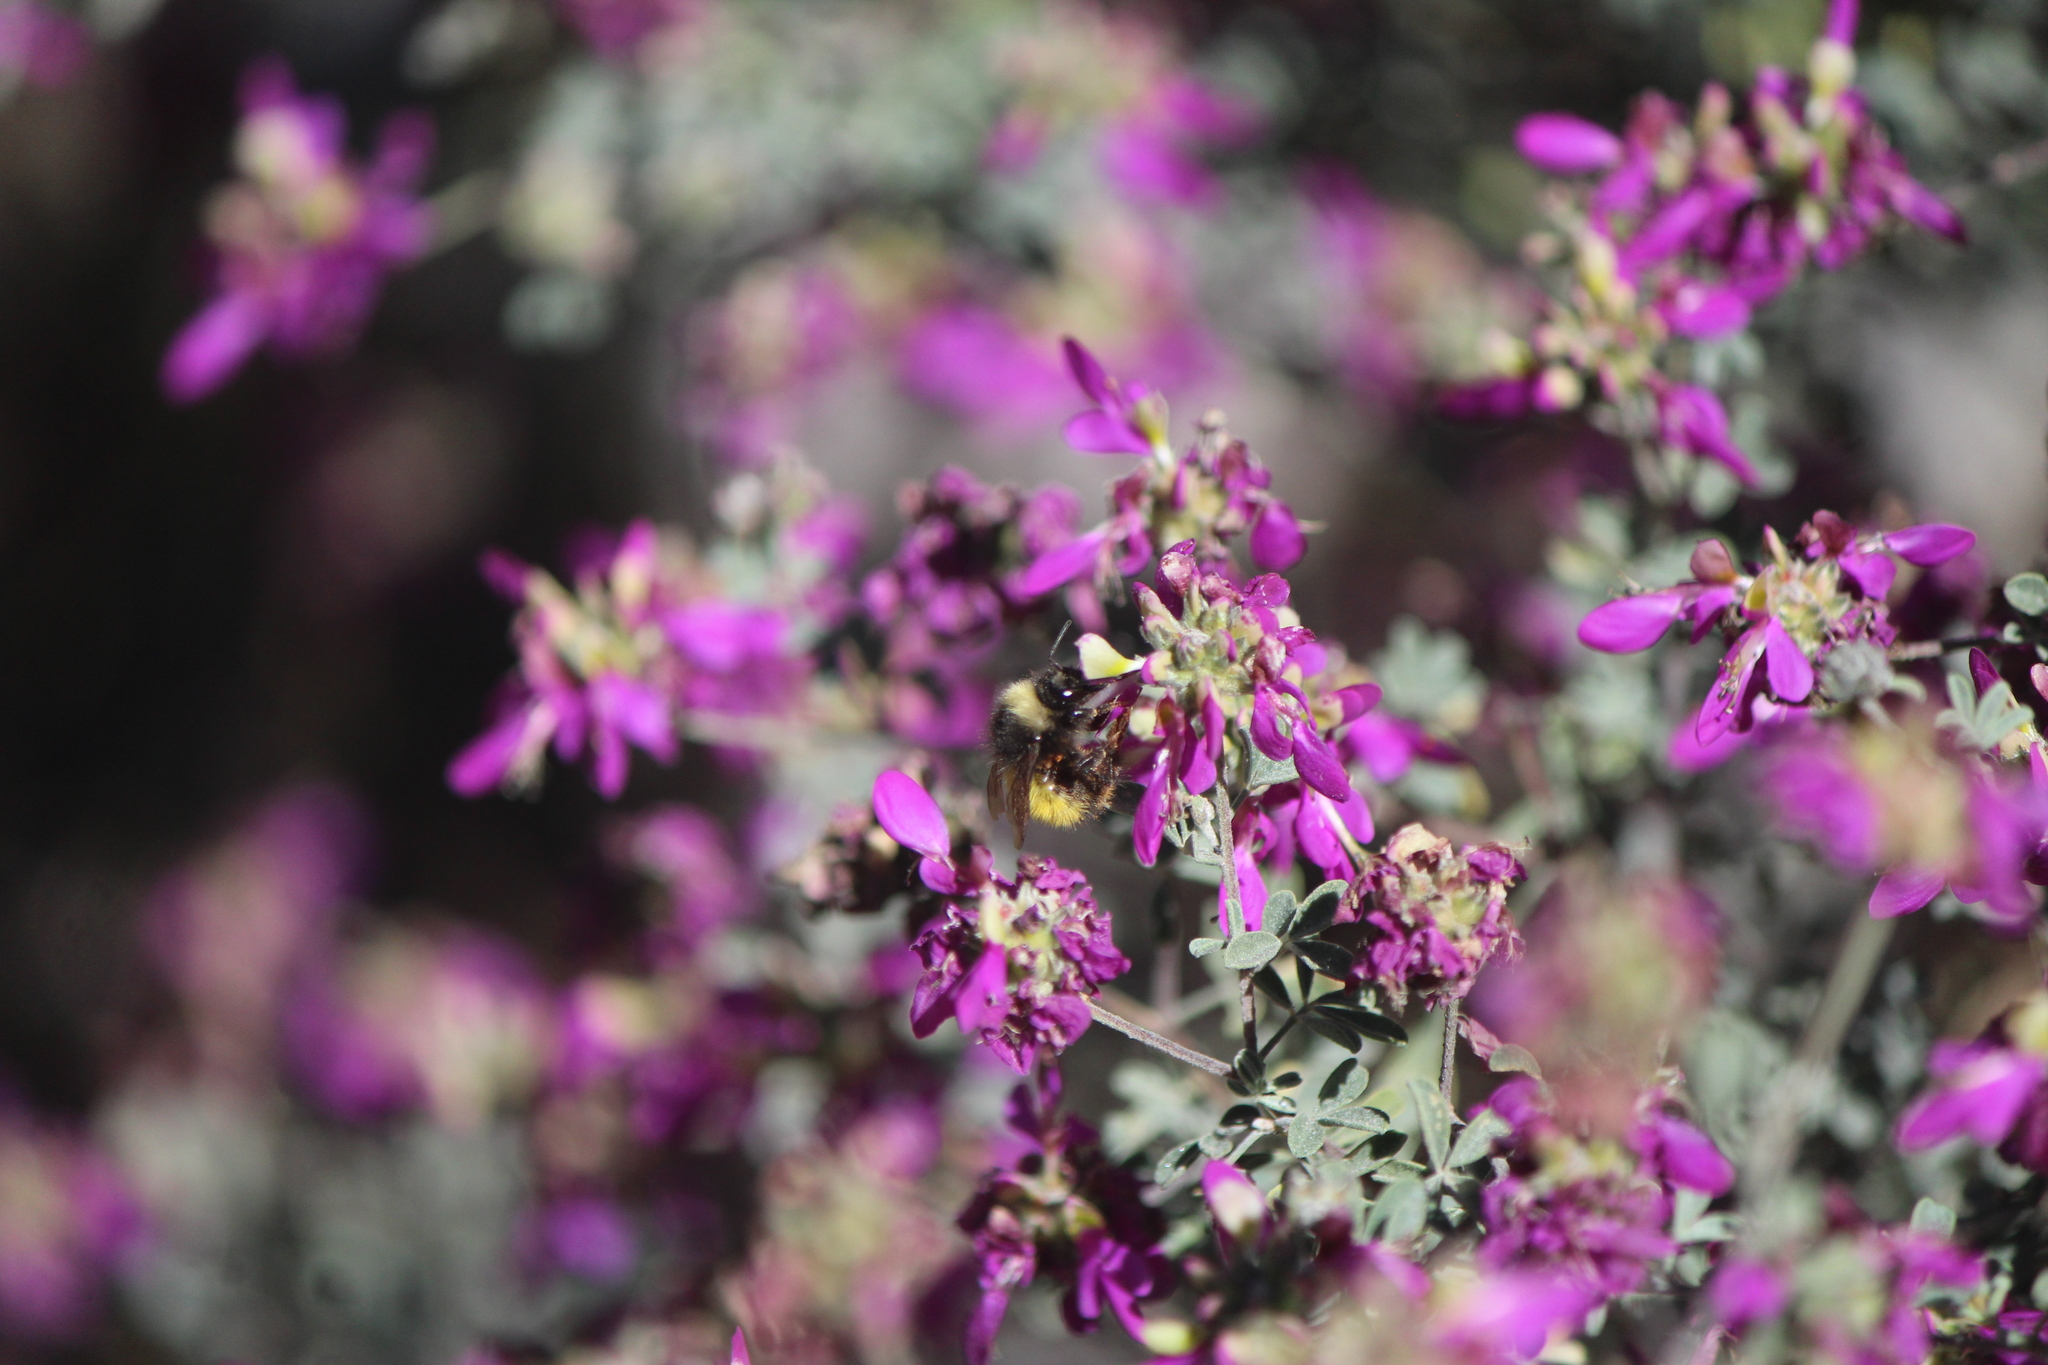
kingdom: Animalia
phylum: Arthropoda
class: Insecta
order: Hymenoptera
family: Apidae
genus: Bombus
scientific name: Bombus weisi
